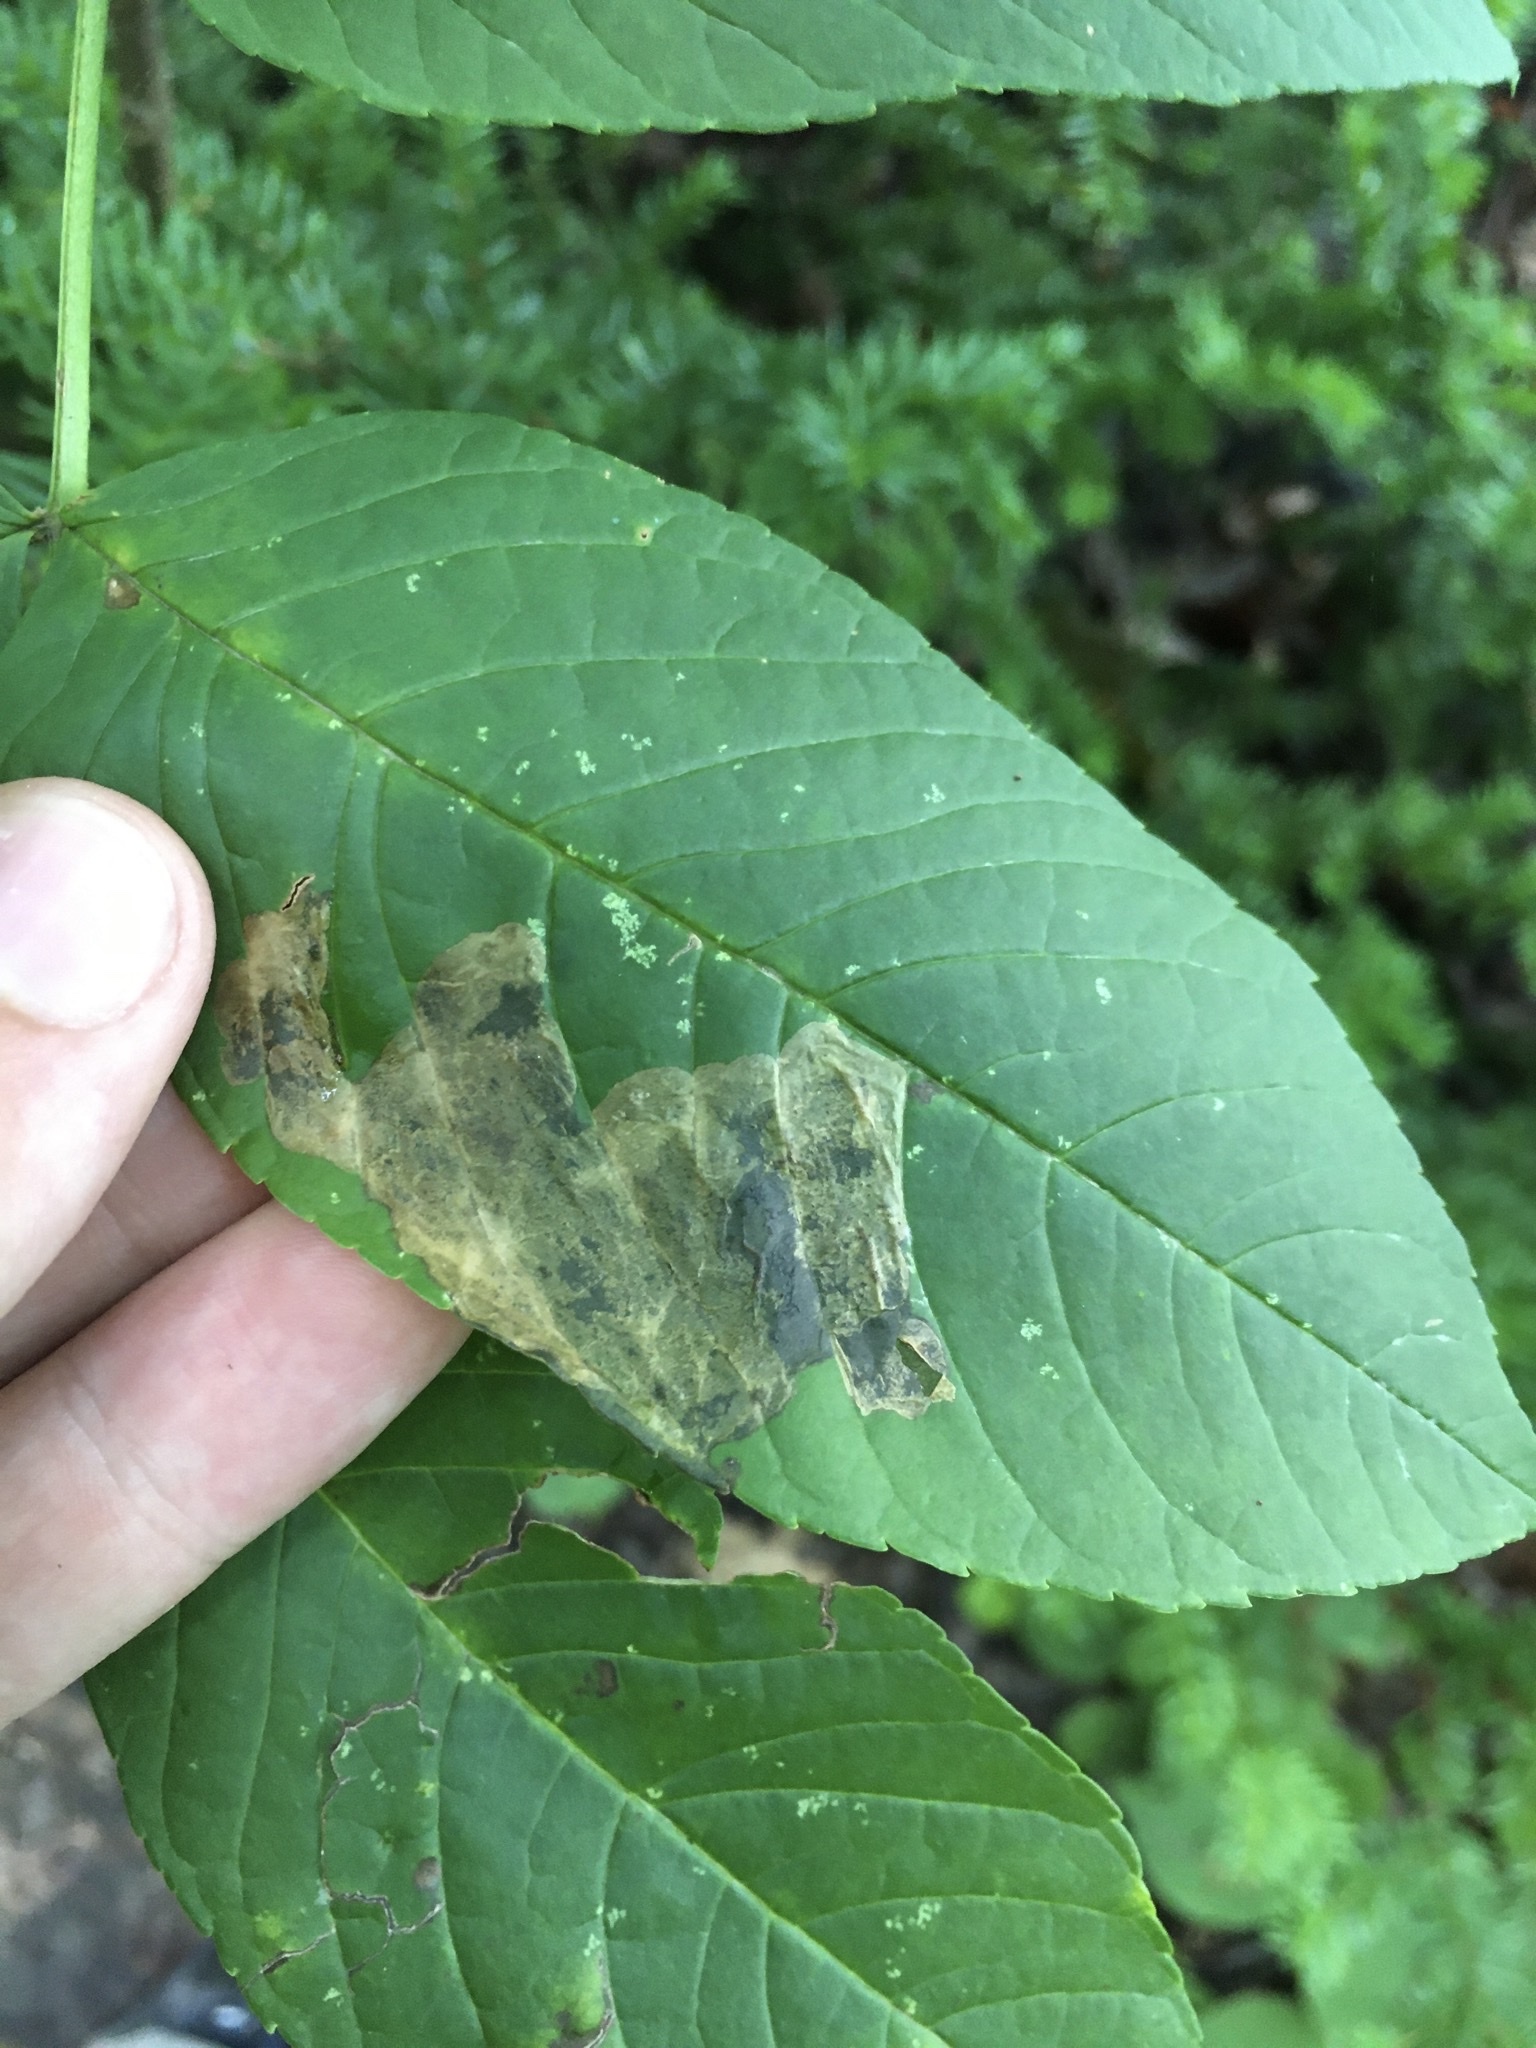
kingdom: Animalia
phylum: Arthropoda
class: Insecta
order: Lepidoptera
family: Gracillariidae
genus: Gracillaria
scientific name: Gracillaria syringella
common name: Common slender
